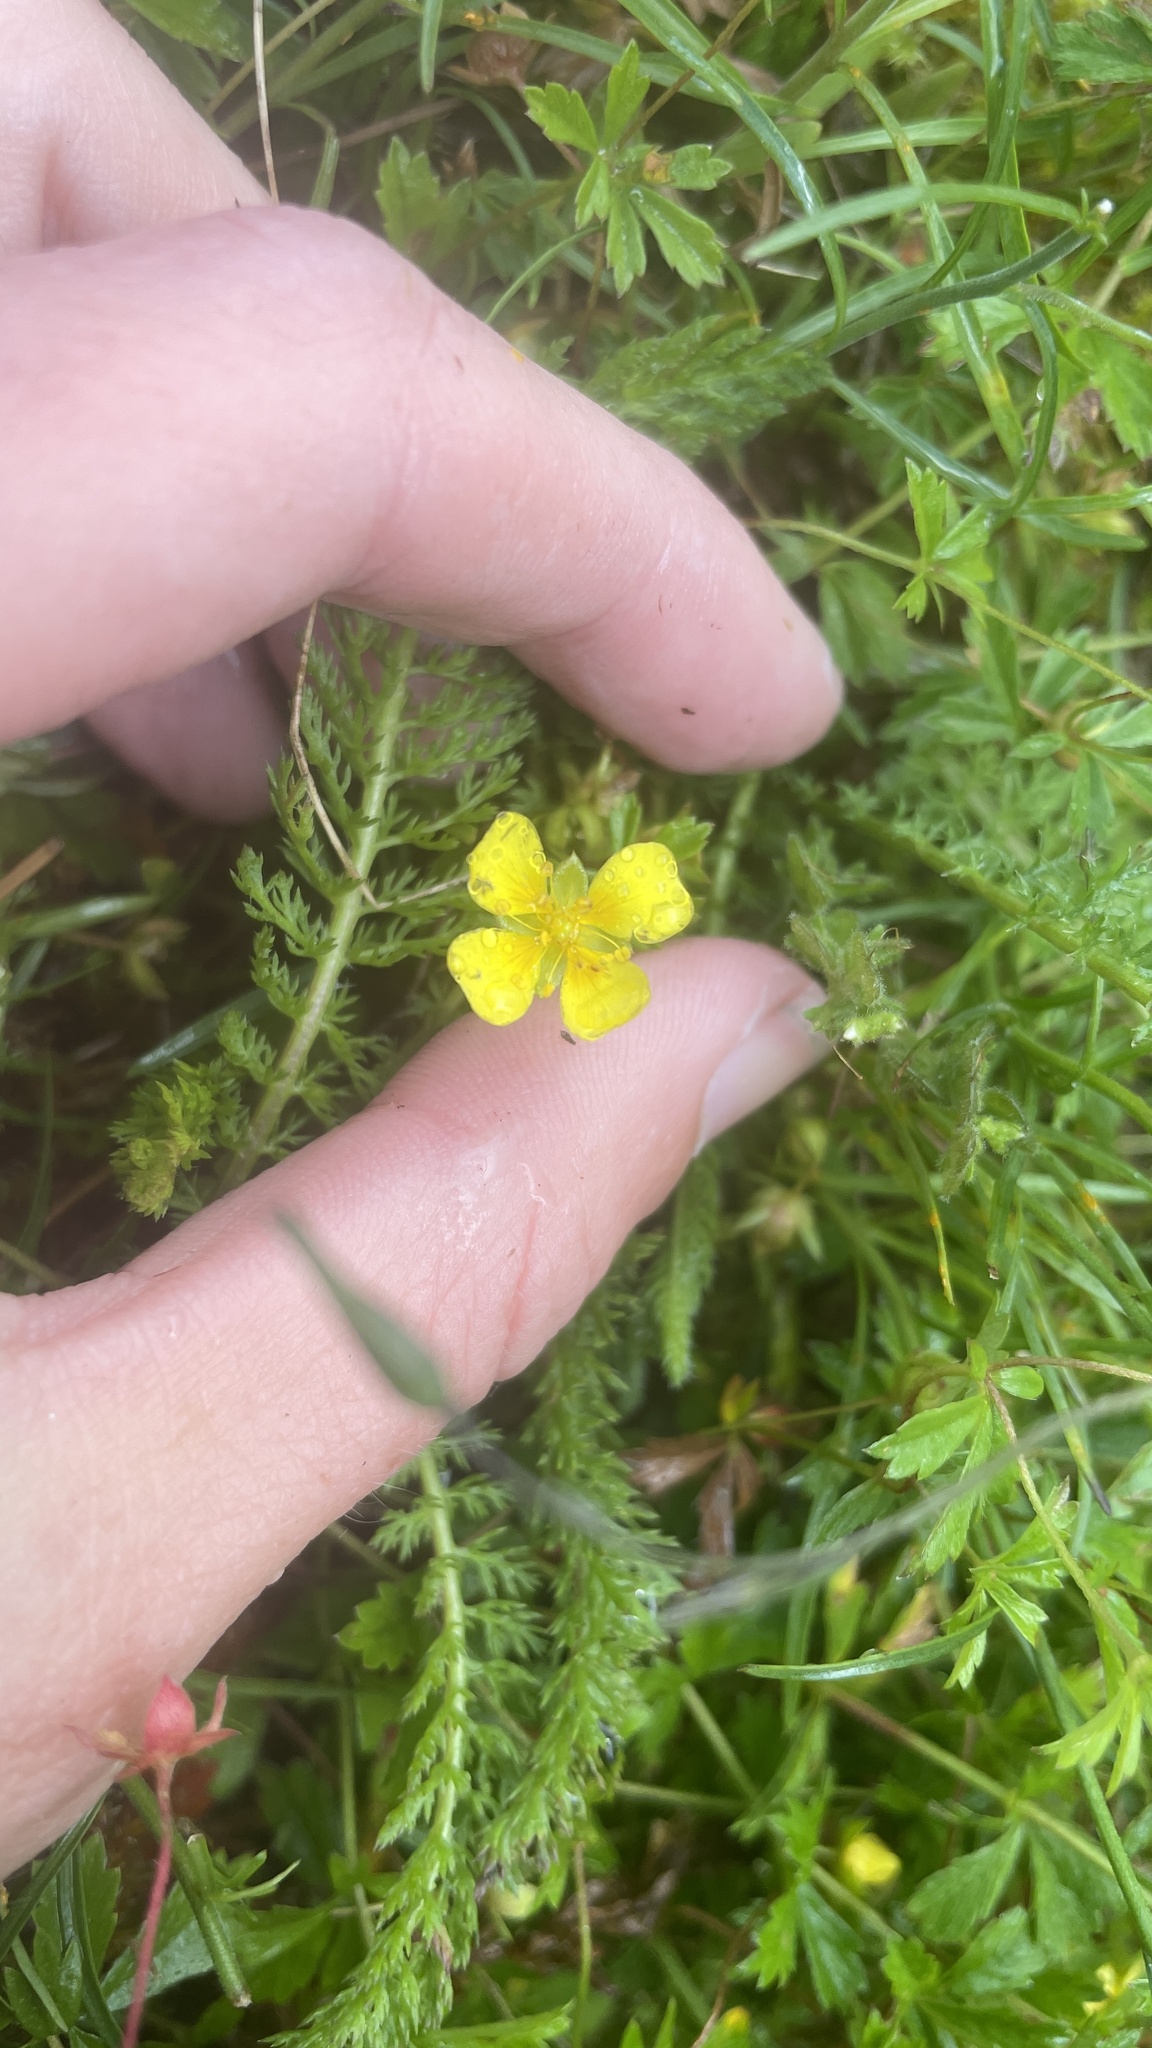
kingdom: Plantae
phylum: Tracheophyta
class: Magnoliopsida
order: Rosales
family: Rosaceae
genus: Potentilla
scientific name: Potentilla erecta
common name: Tormentil
